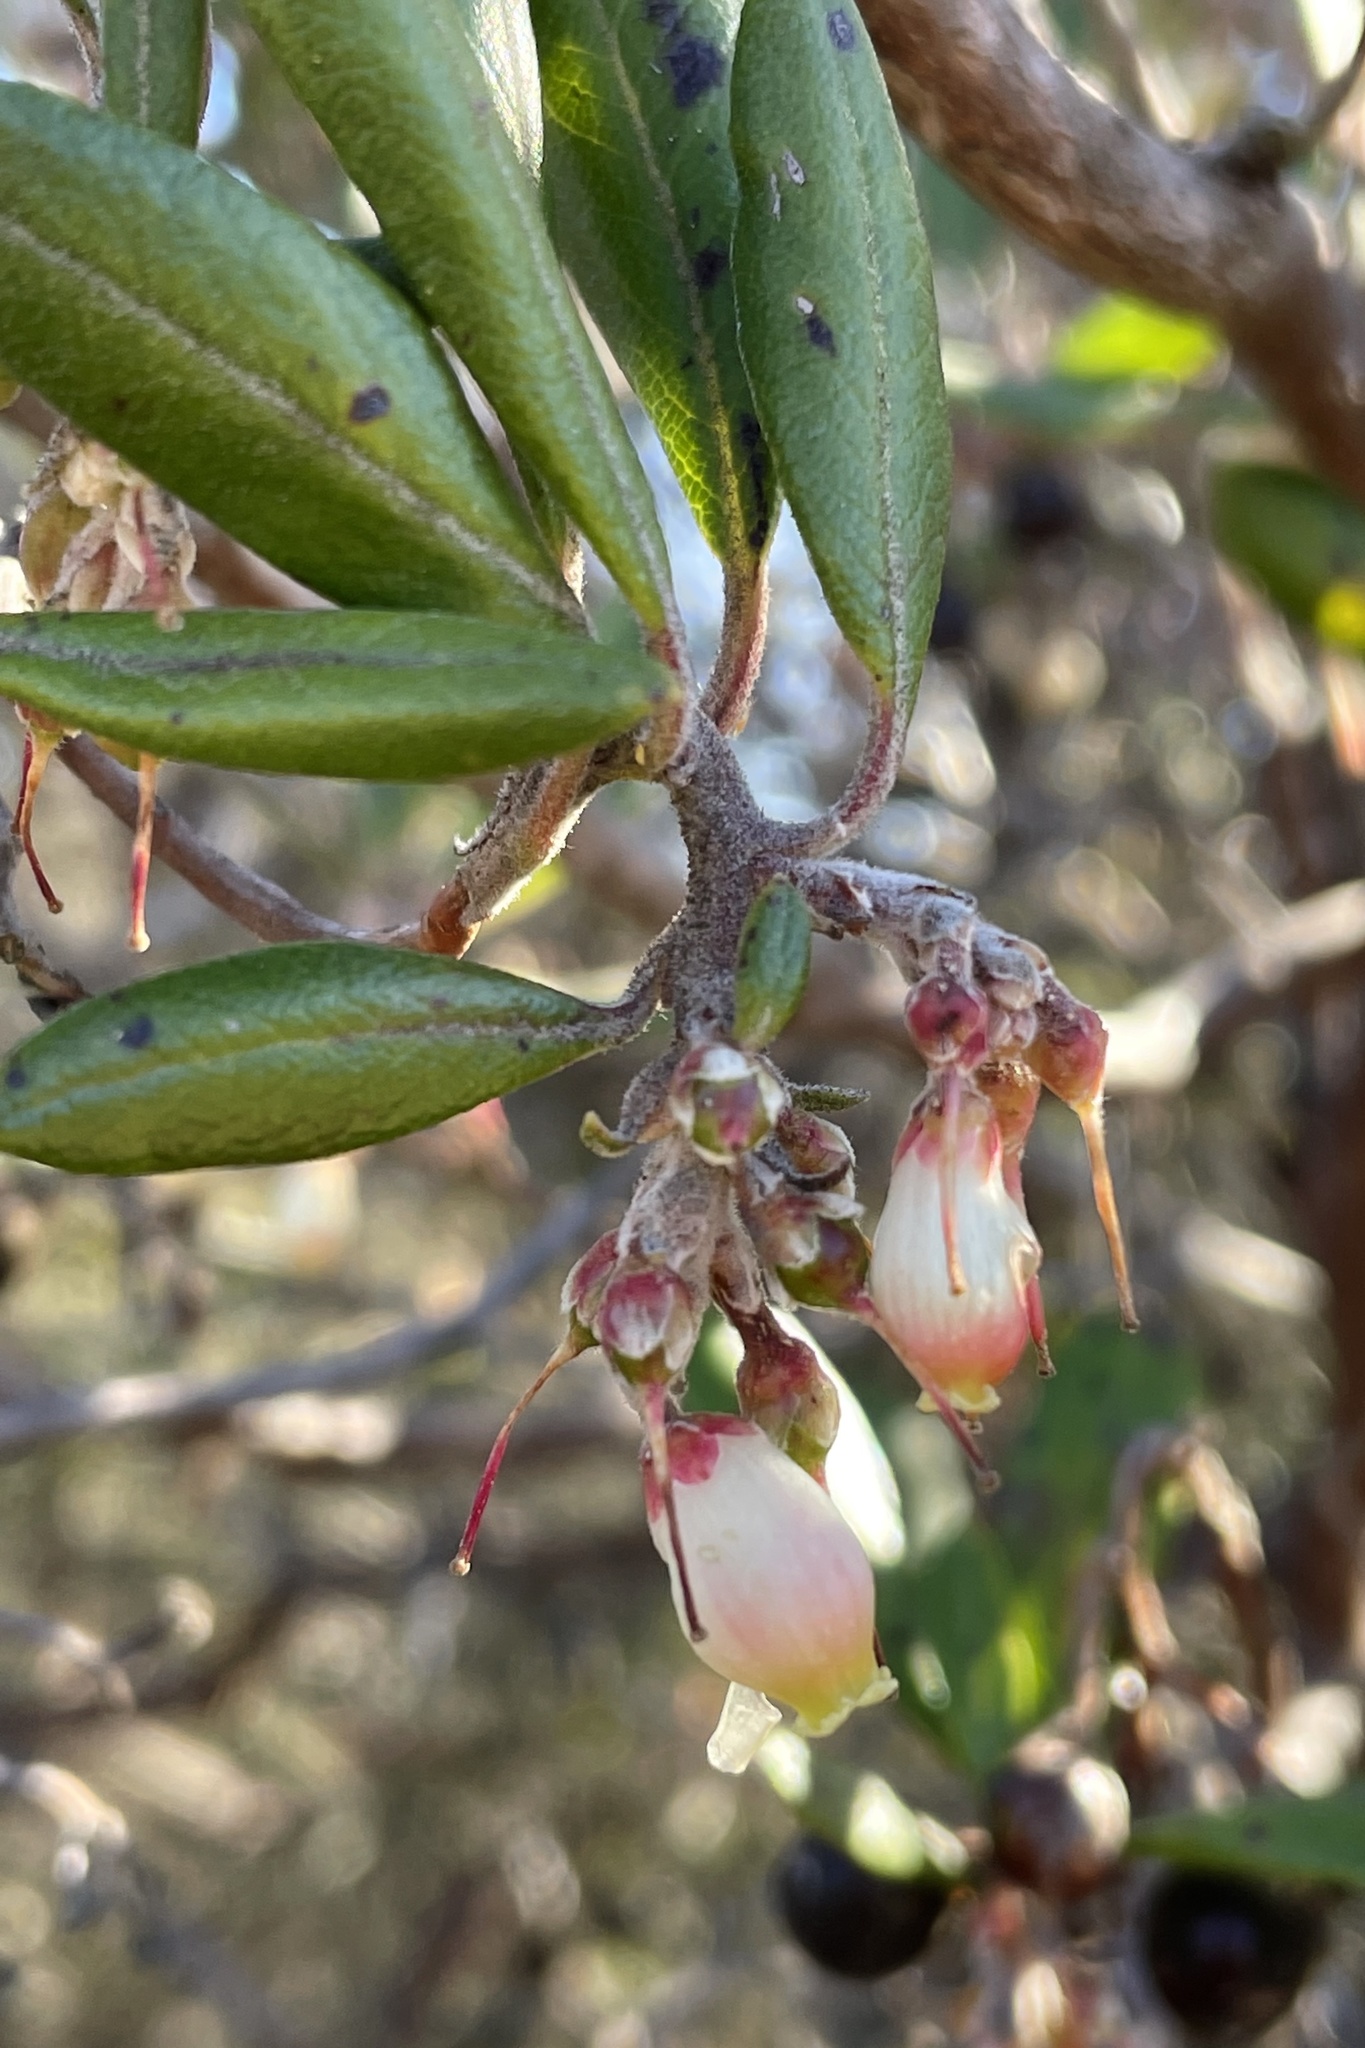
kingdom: Plantae
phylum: Tracheophyta
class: Magnoliopsida
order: Ericales
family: Ericaceae
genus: Arctostaphylos
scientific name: Arctostaphylos bicolor
